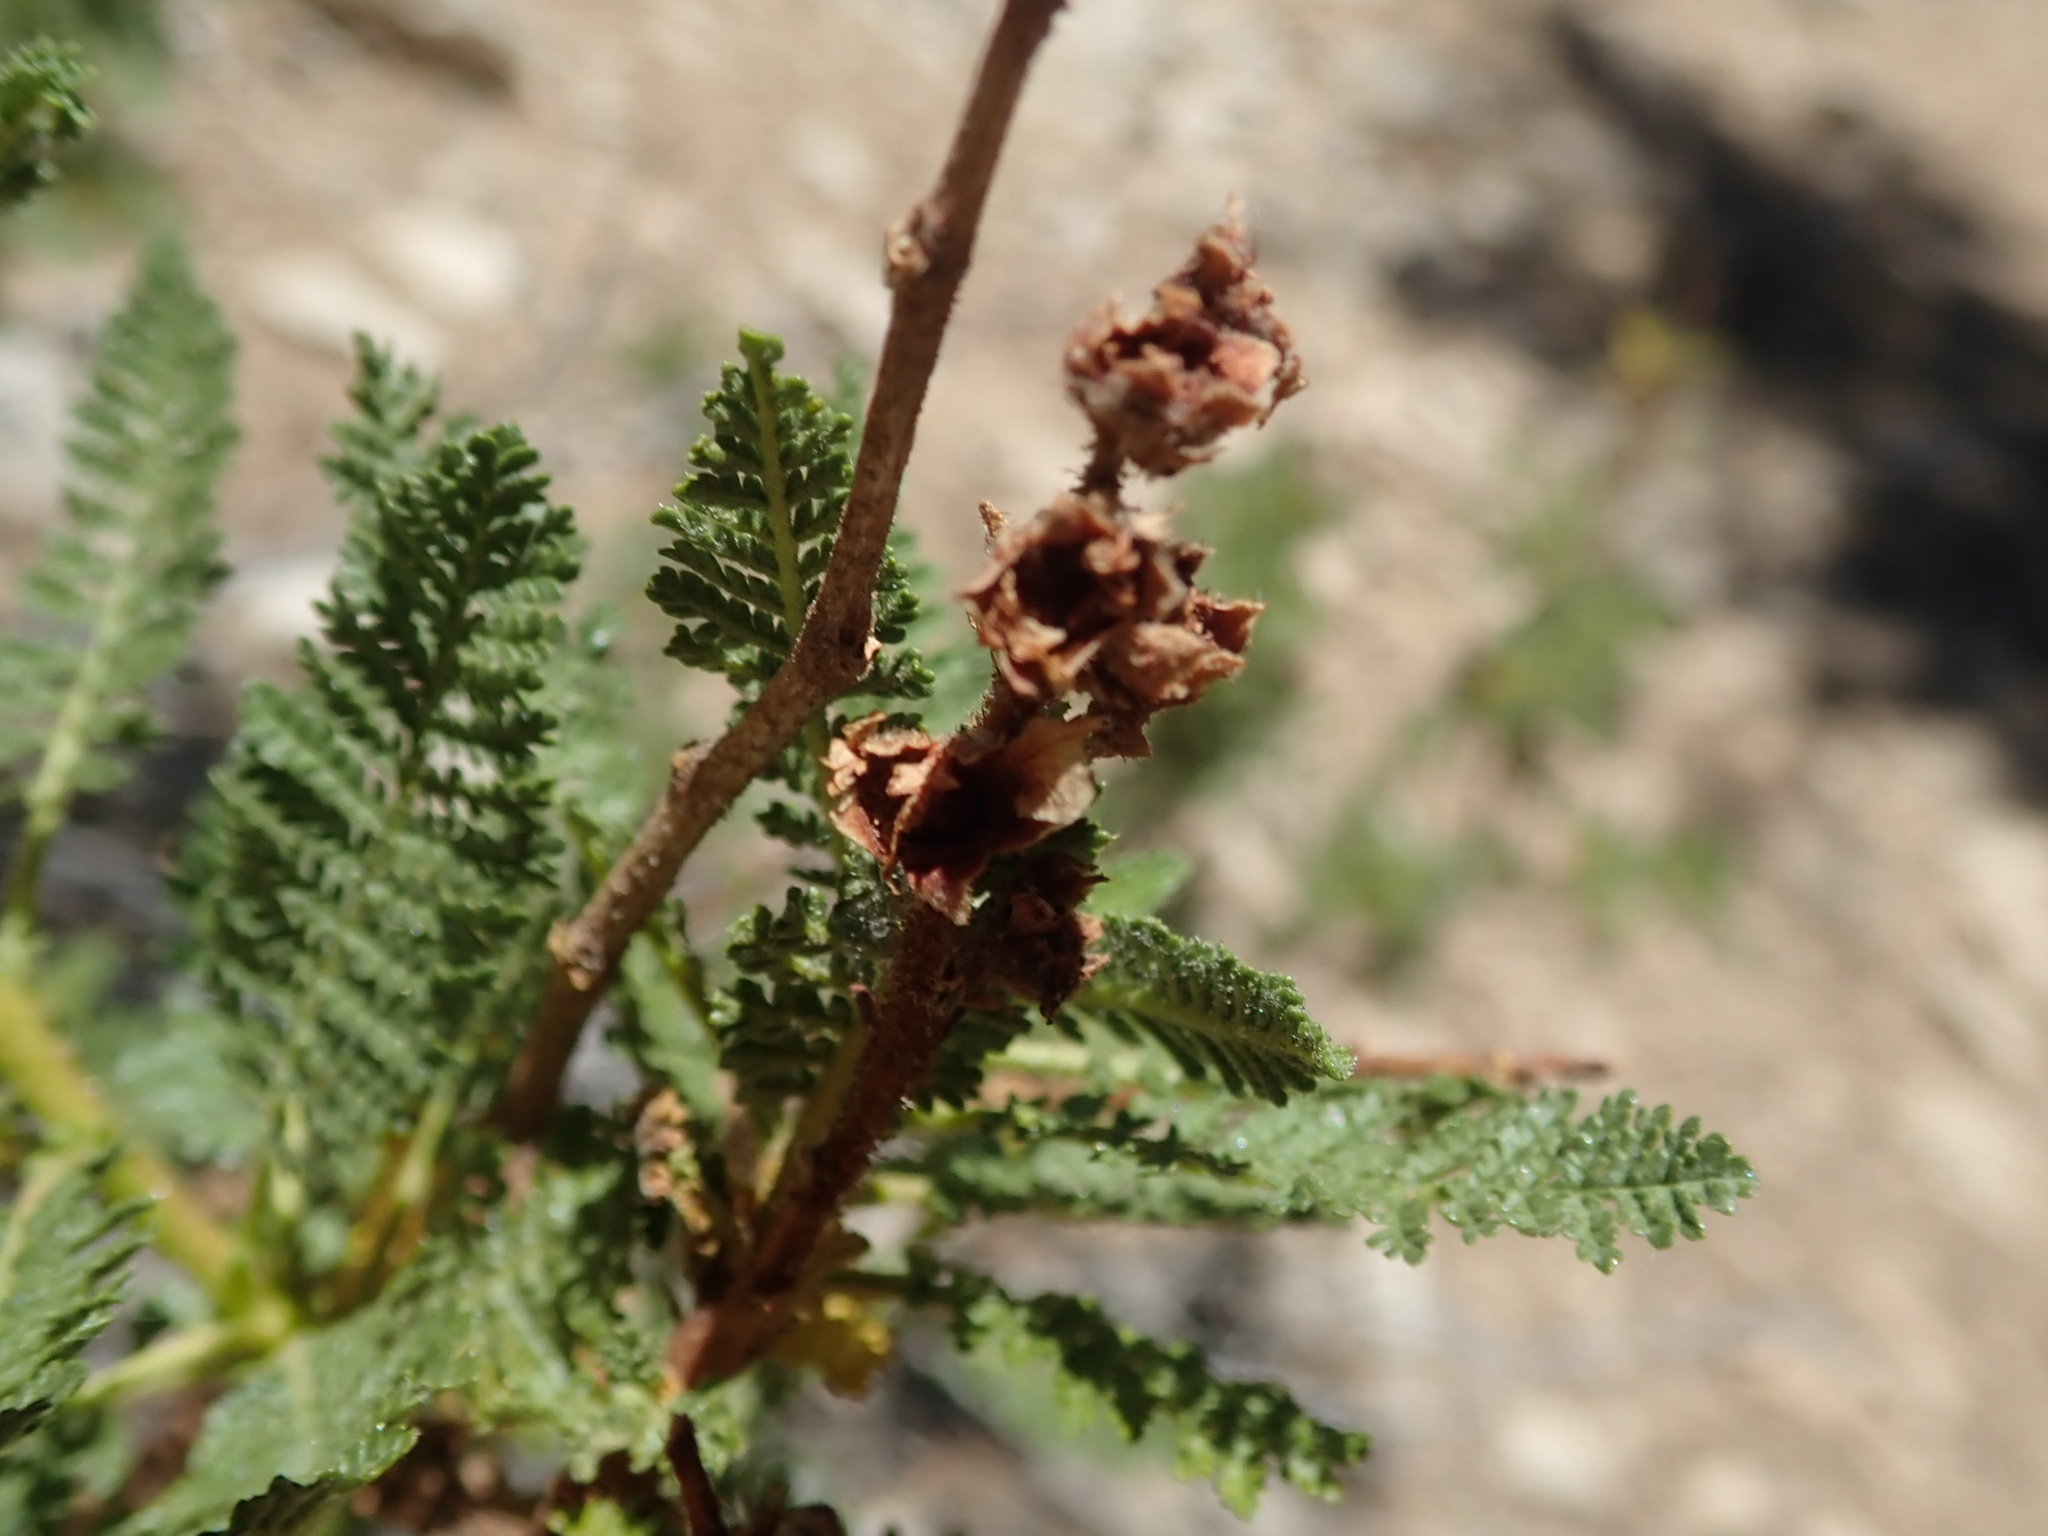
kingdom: Plantae
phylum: Tracheophyta
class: Magnoliopsida
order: Rosales
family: Rosaceae
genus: Chamaebatiaria
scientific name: Chamaebatiaria millefolium
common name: Fernbush
